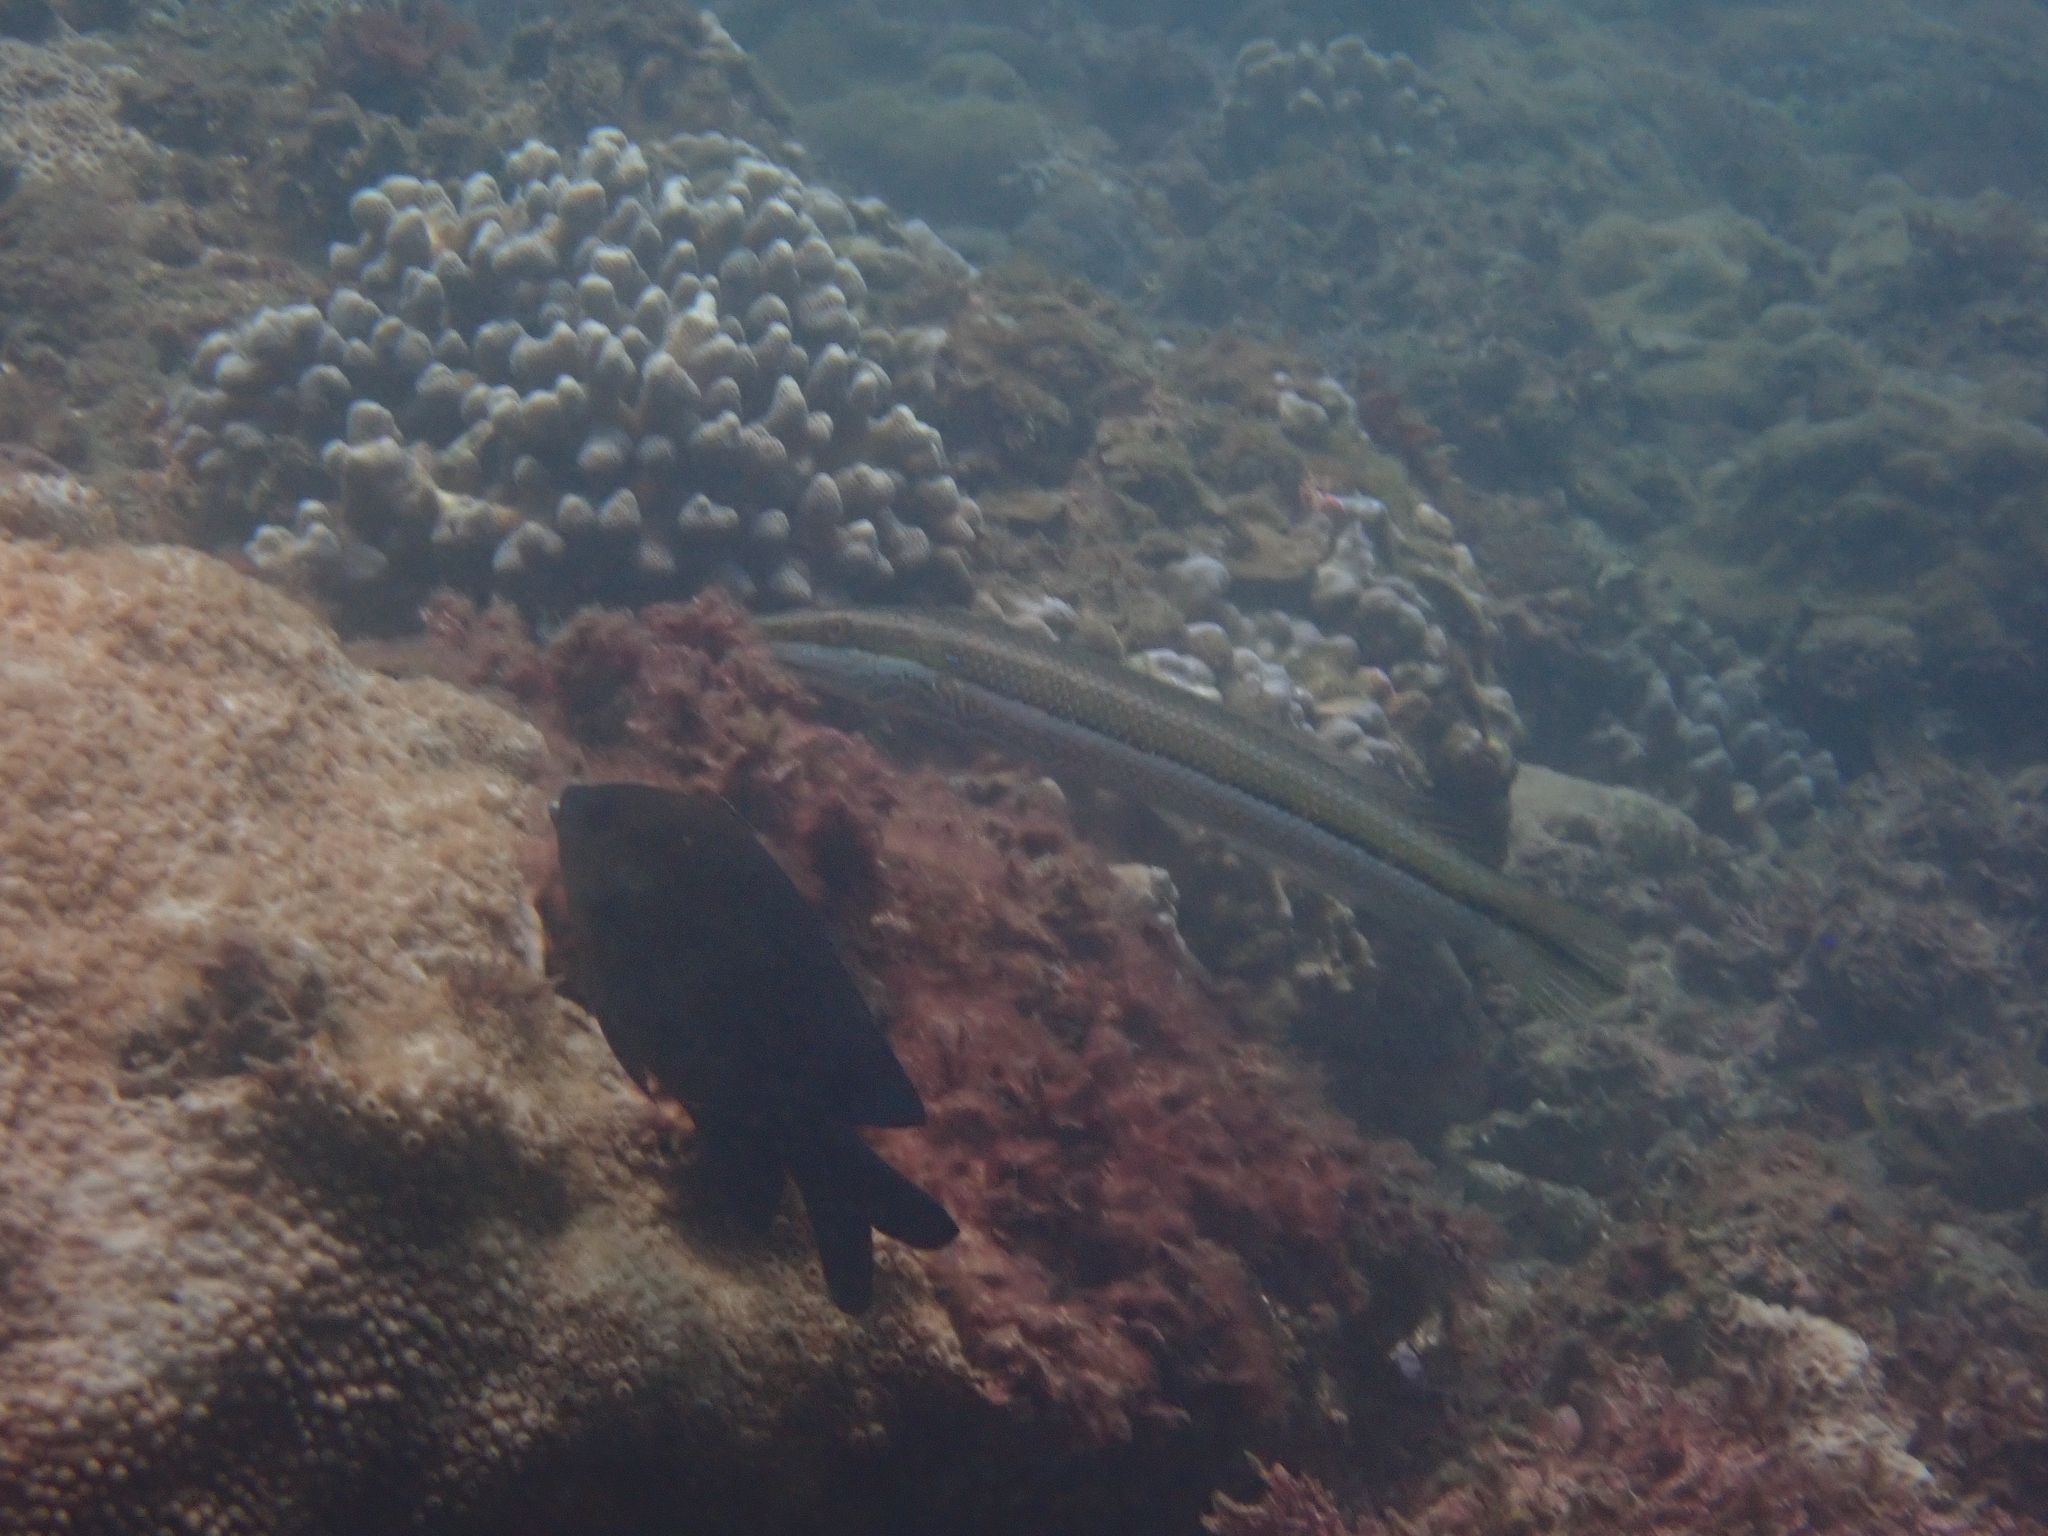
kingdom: Animalia
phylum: Chordata
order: Perciformes
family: Labridae
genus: Cheilio
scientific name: Cheilio inermis
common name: Cigar wrasse
